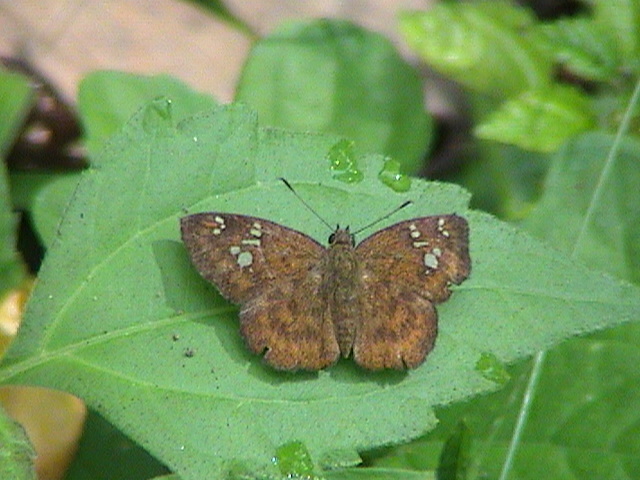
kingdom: Animalia
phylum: Arthropoda
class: Insecta
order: Lepidoptera
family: Hesperiidae
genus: Pseudocoladenia
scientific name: Pseudocoladenia dan
